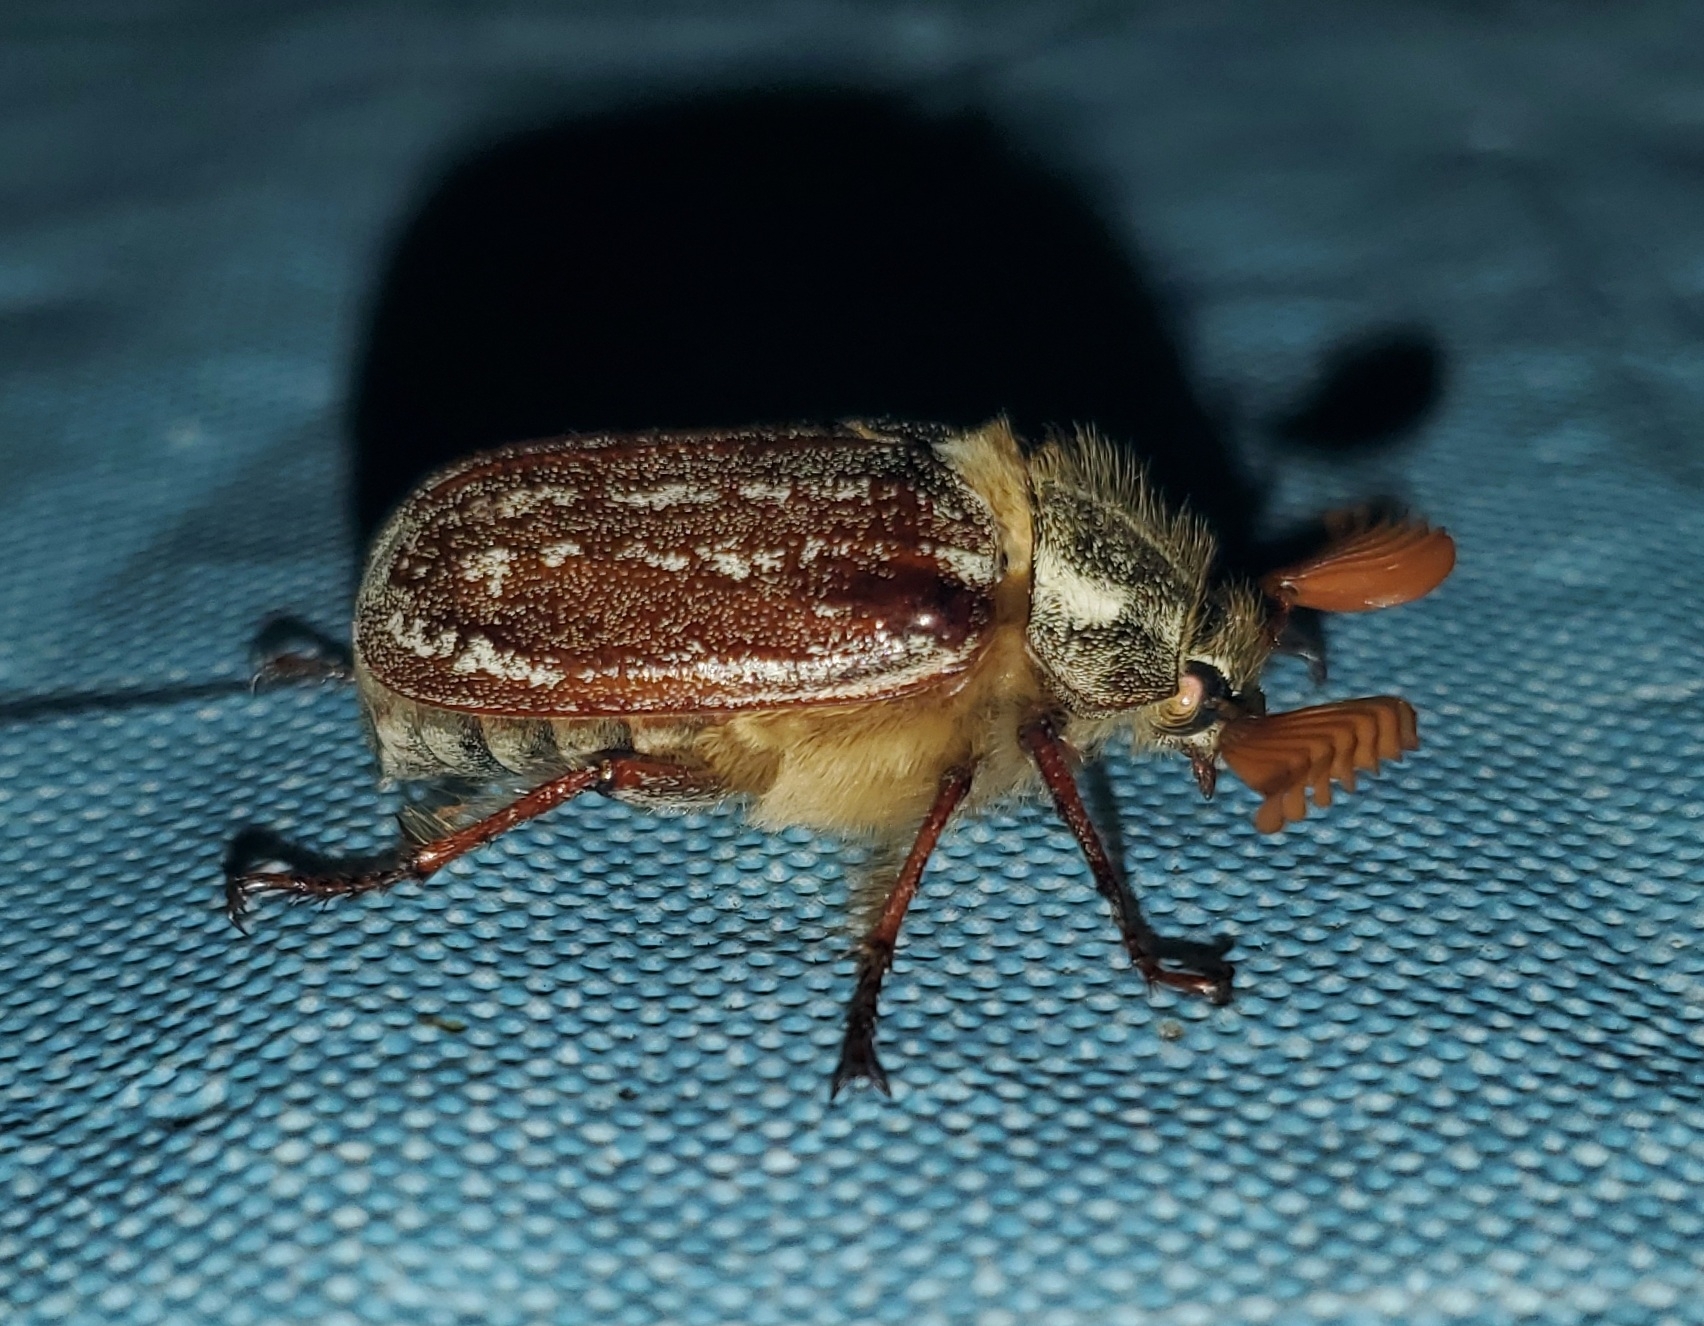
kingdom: Animalia
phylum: Arthropoda
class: Insecta
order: Coleoptera
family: Scarabaeidae
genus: Polyphylla
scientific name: Polyphylla uteana
